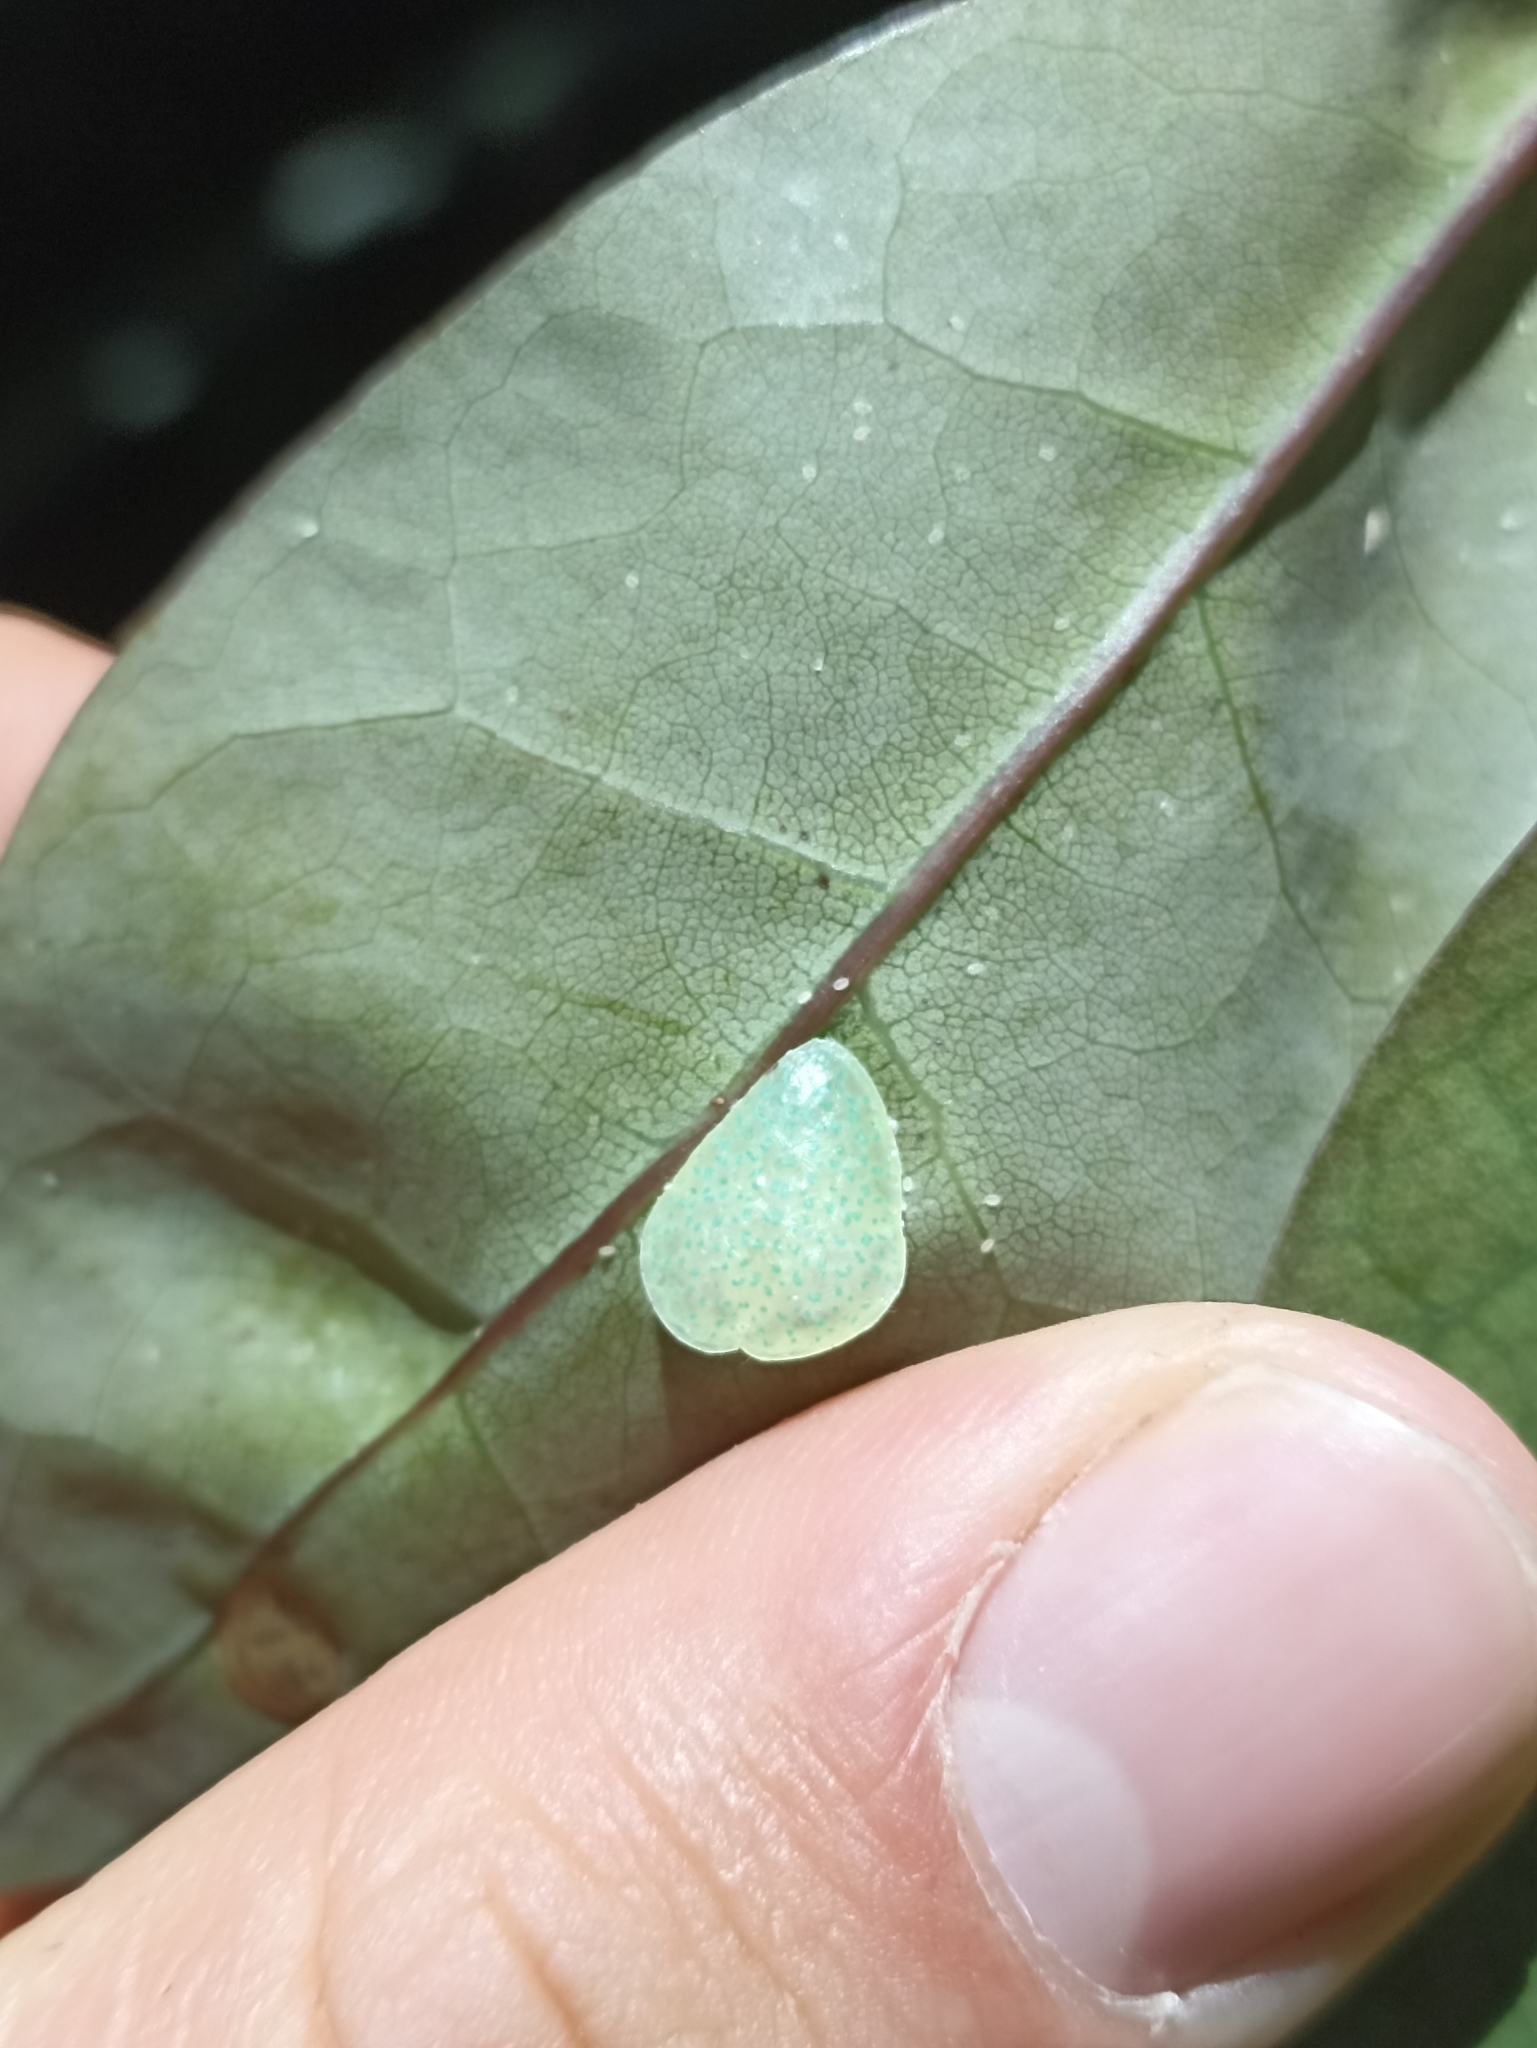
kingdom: Plantae
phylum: Tracheophyta
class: Magnoliopsida
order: Laurales
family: Lauraceae
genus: Litsea
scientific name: Litsea calicaris
